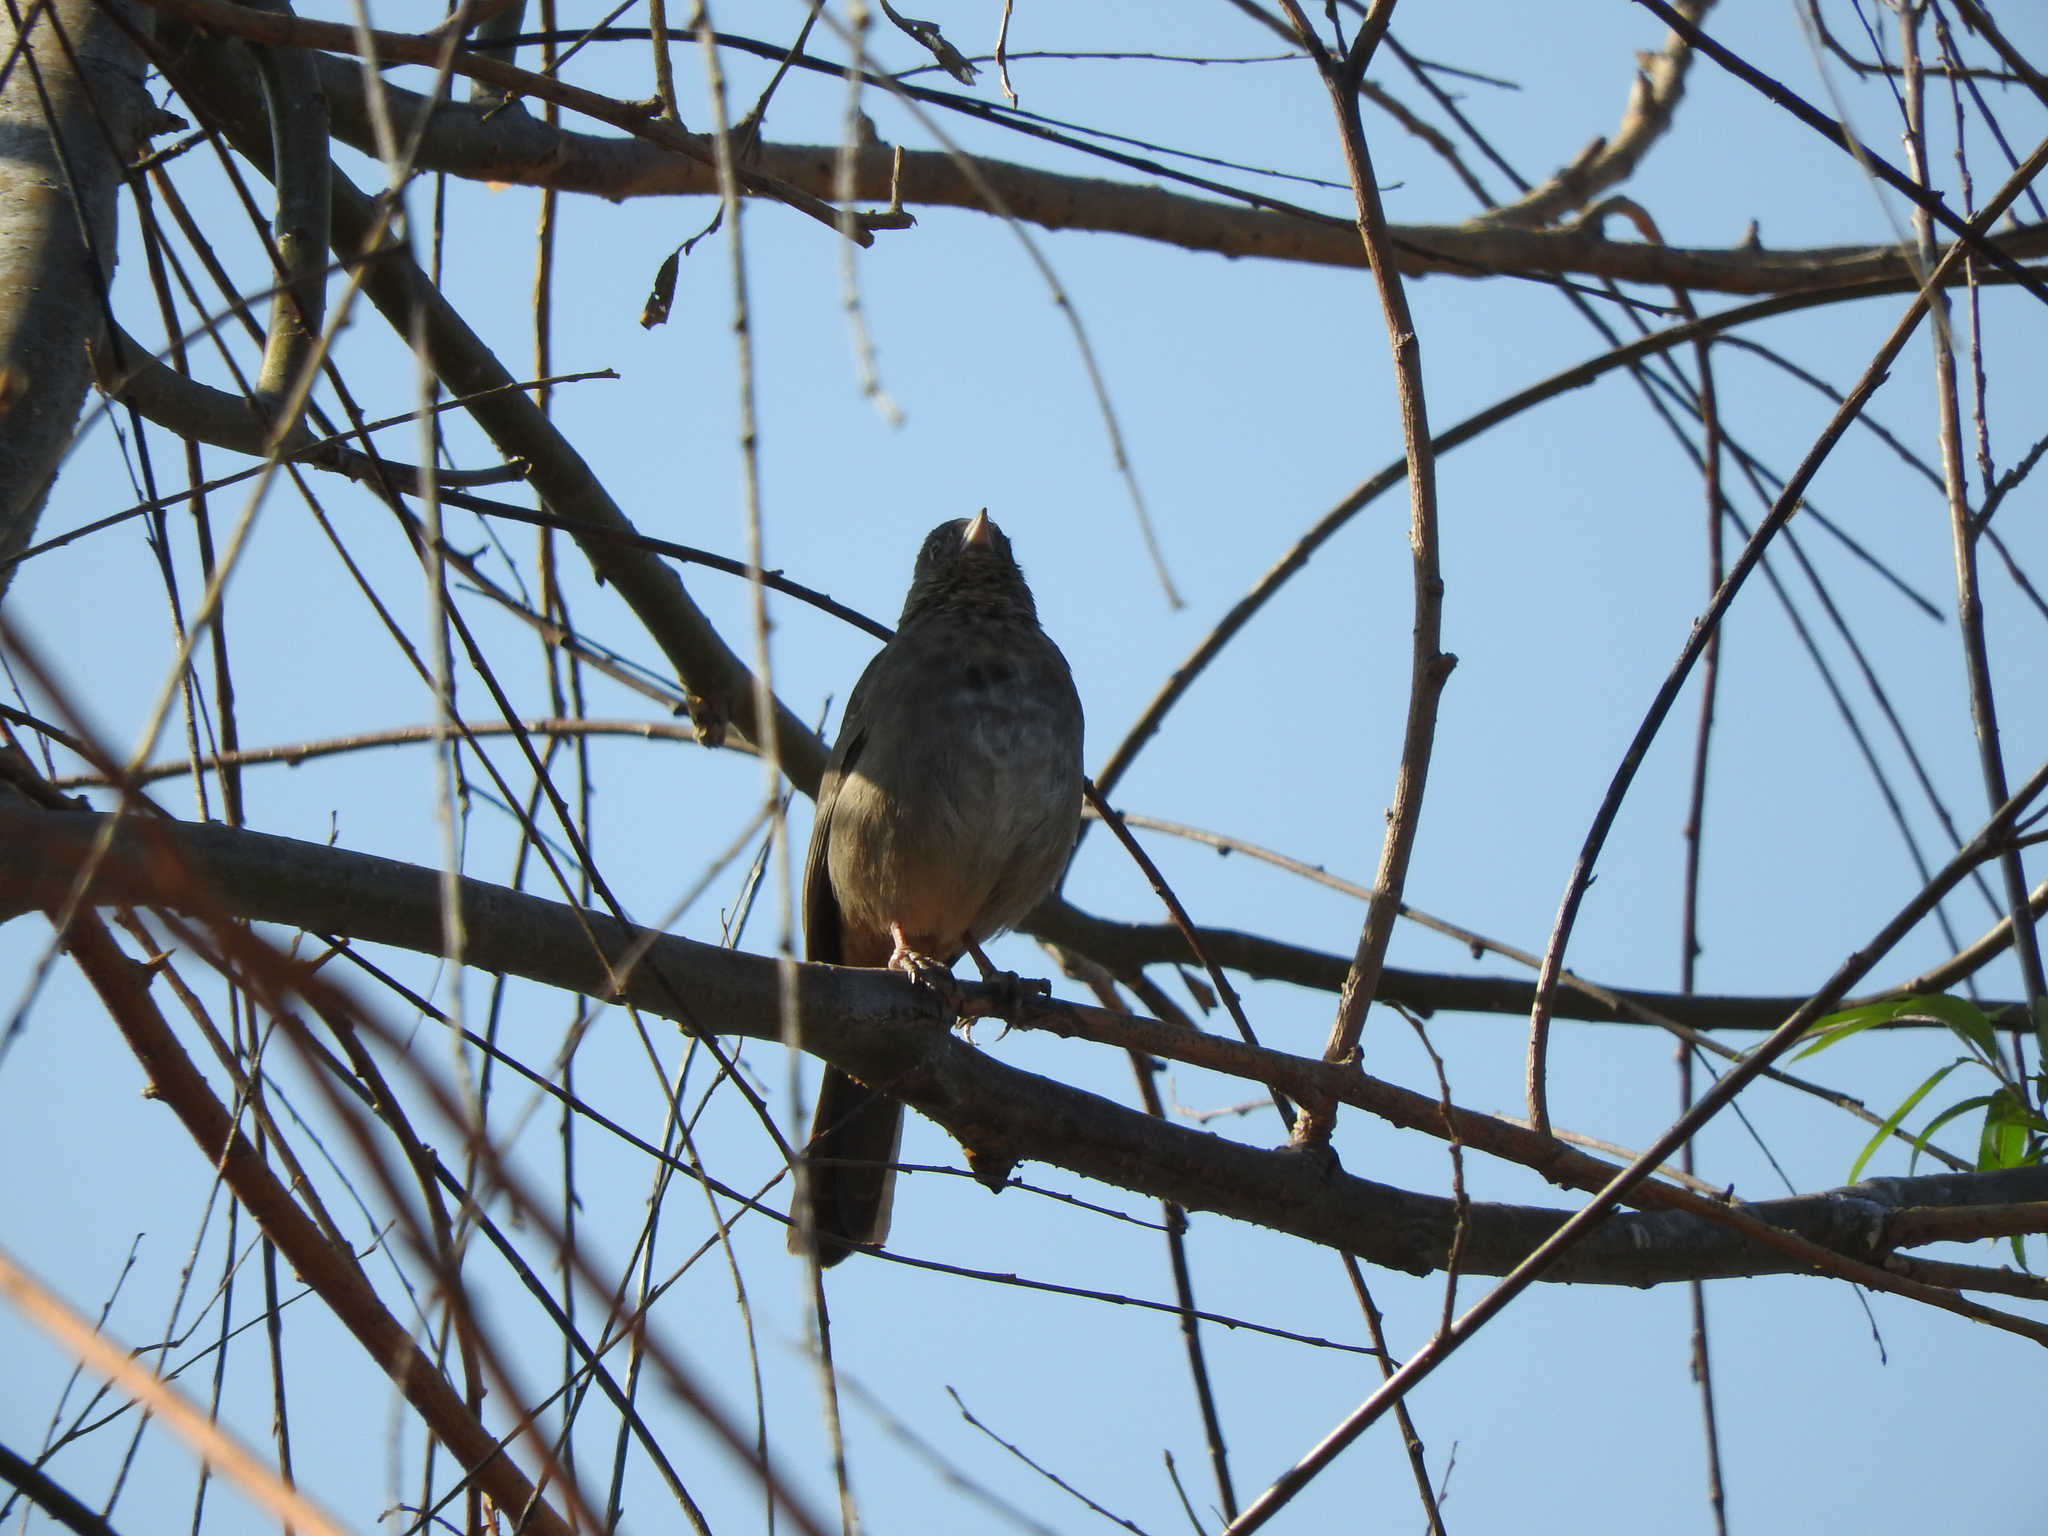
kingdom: Animalia
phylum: Chordata
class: Aves
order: Passeriformes
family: Passerellidae
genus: Melozone
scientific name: Melozone fusca
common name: Canyon towhee
